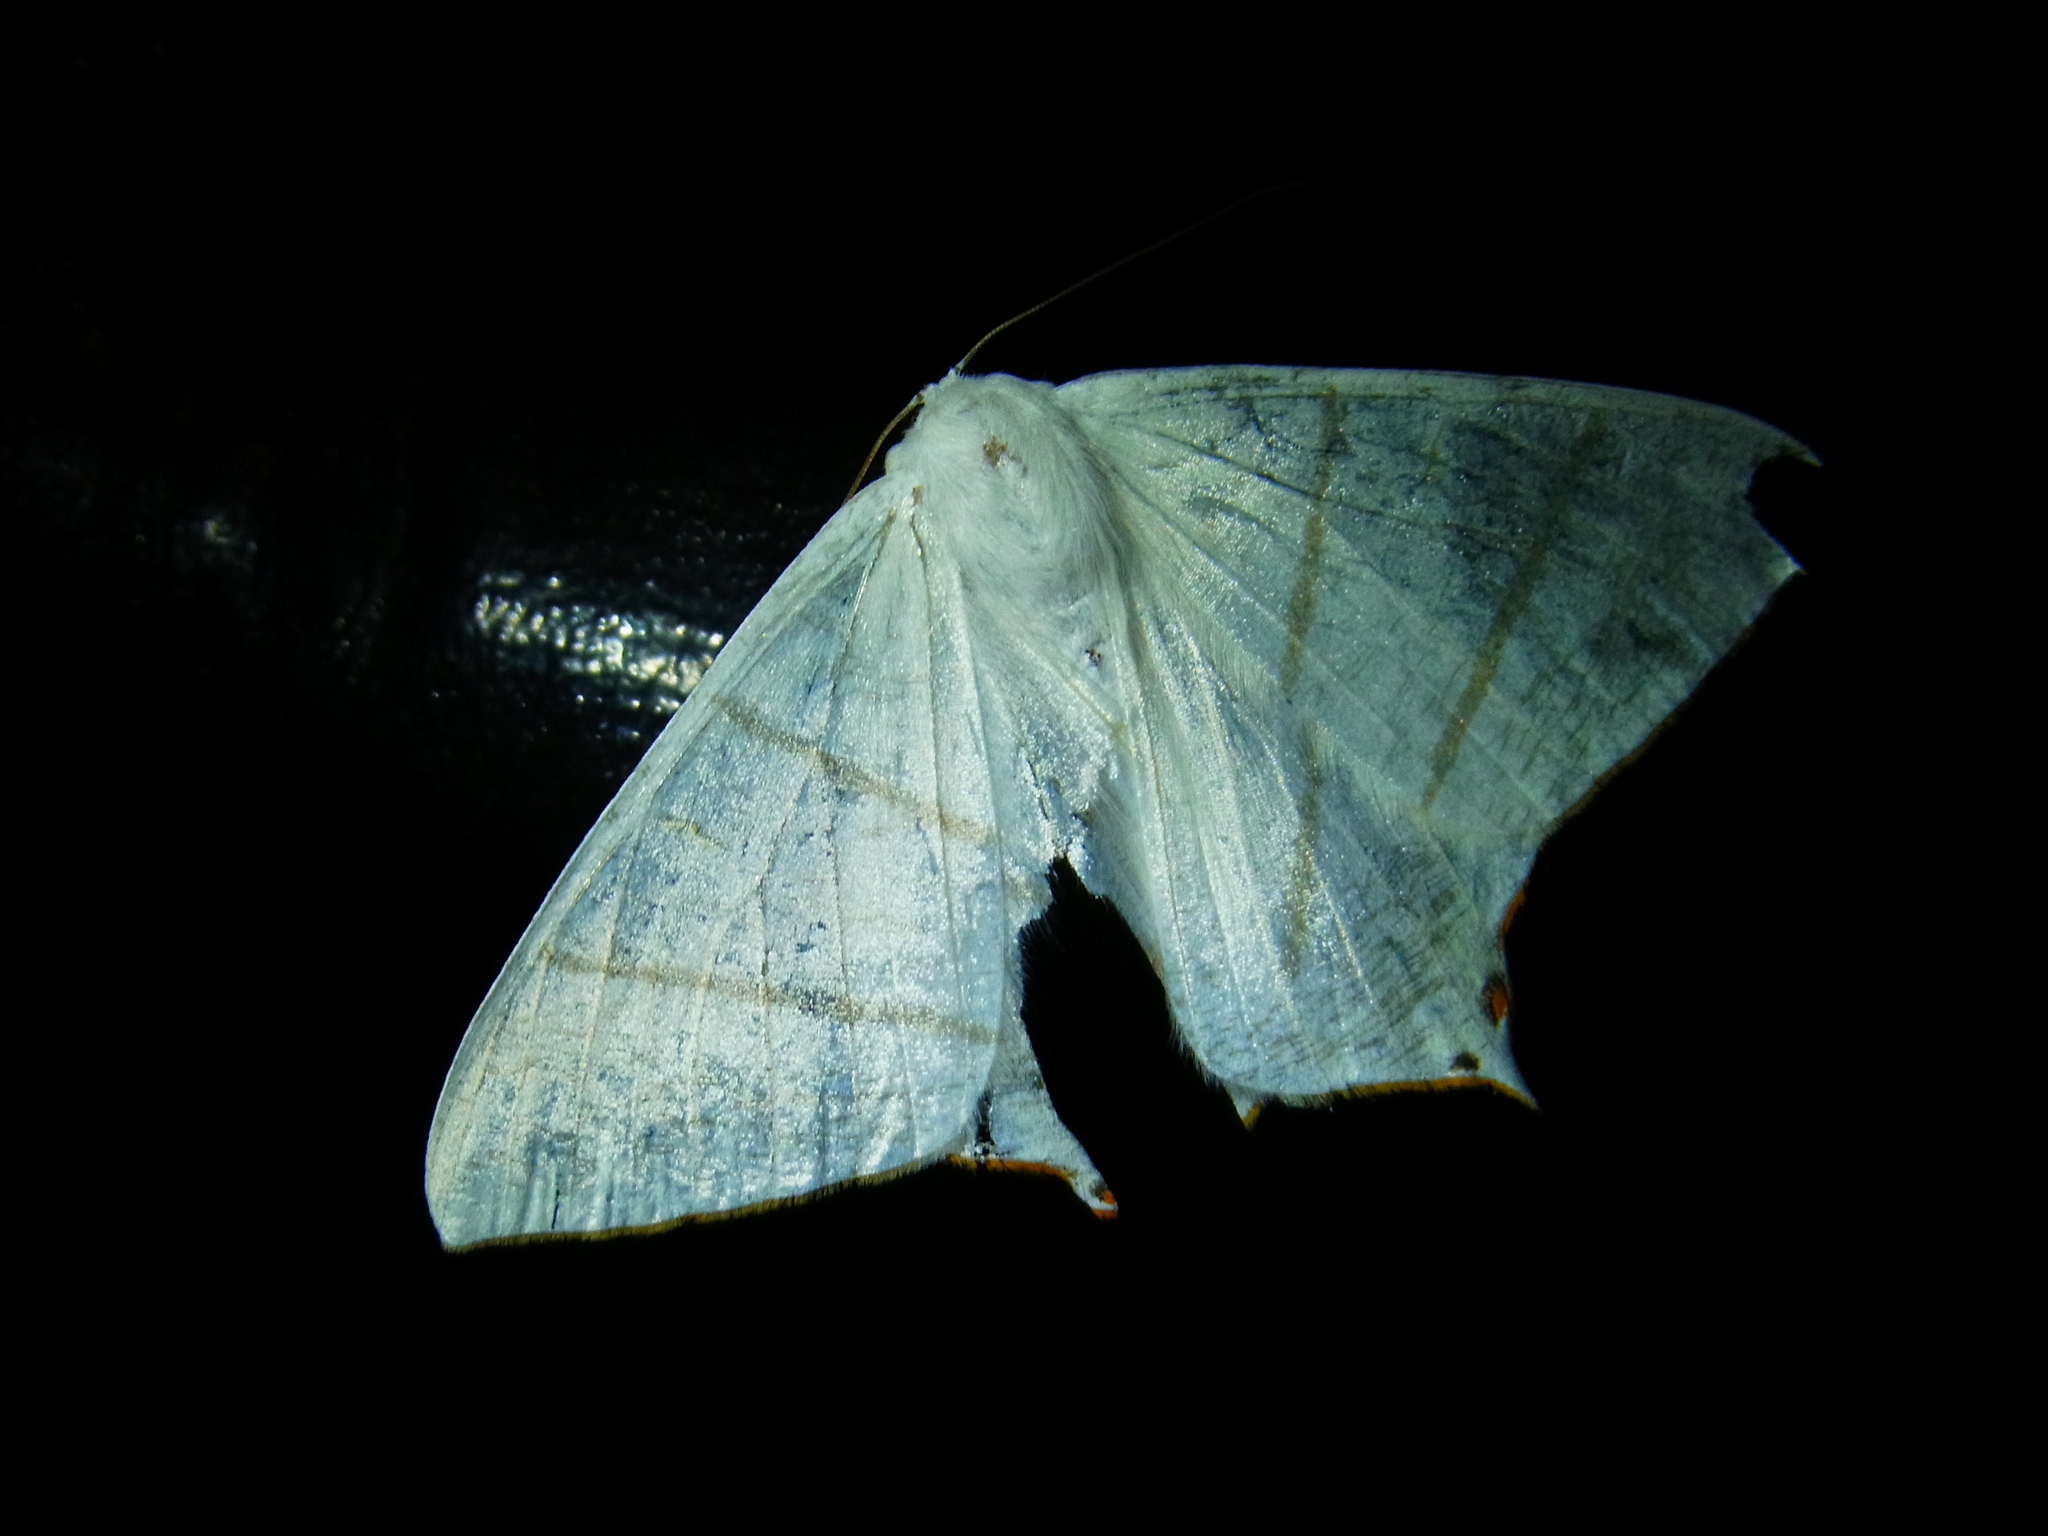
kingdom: Animalia
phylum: Arthropoda
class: Insecta
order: Lepidoptera
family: Geometridae
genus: Ourapteryx
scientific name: Ourapteryx nivea
